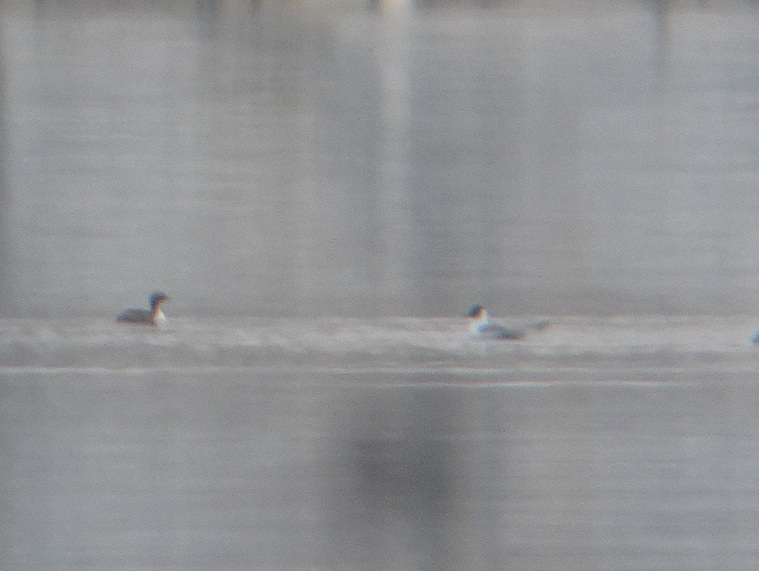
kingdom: Animalia
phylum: Chordata
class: Aves
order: Charadriiformes
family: Laridae
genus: Chroicocephalus
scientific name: Chroicocephalus philadelphia
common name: Bonaparte's gull
